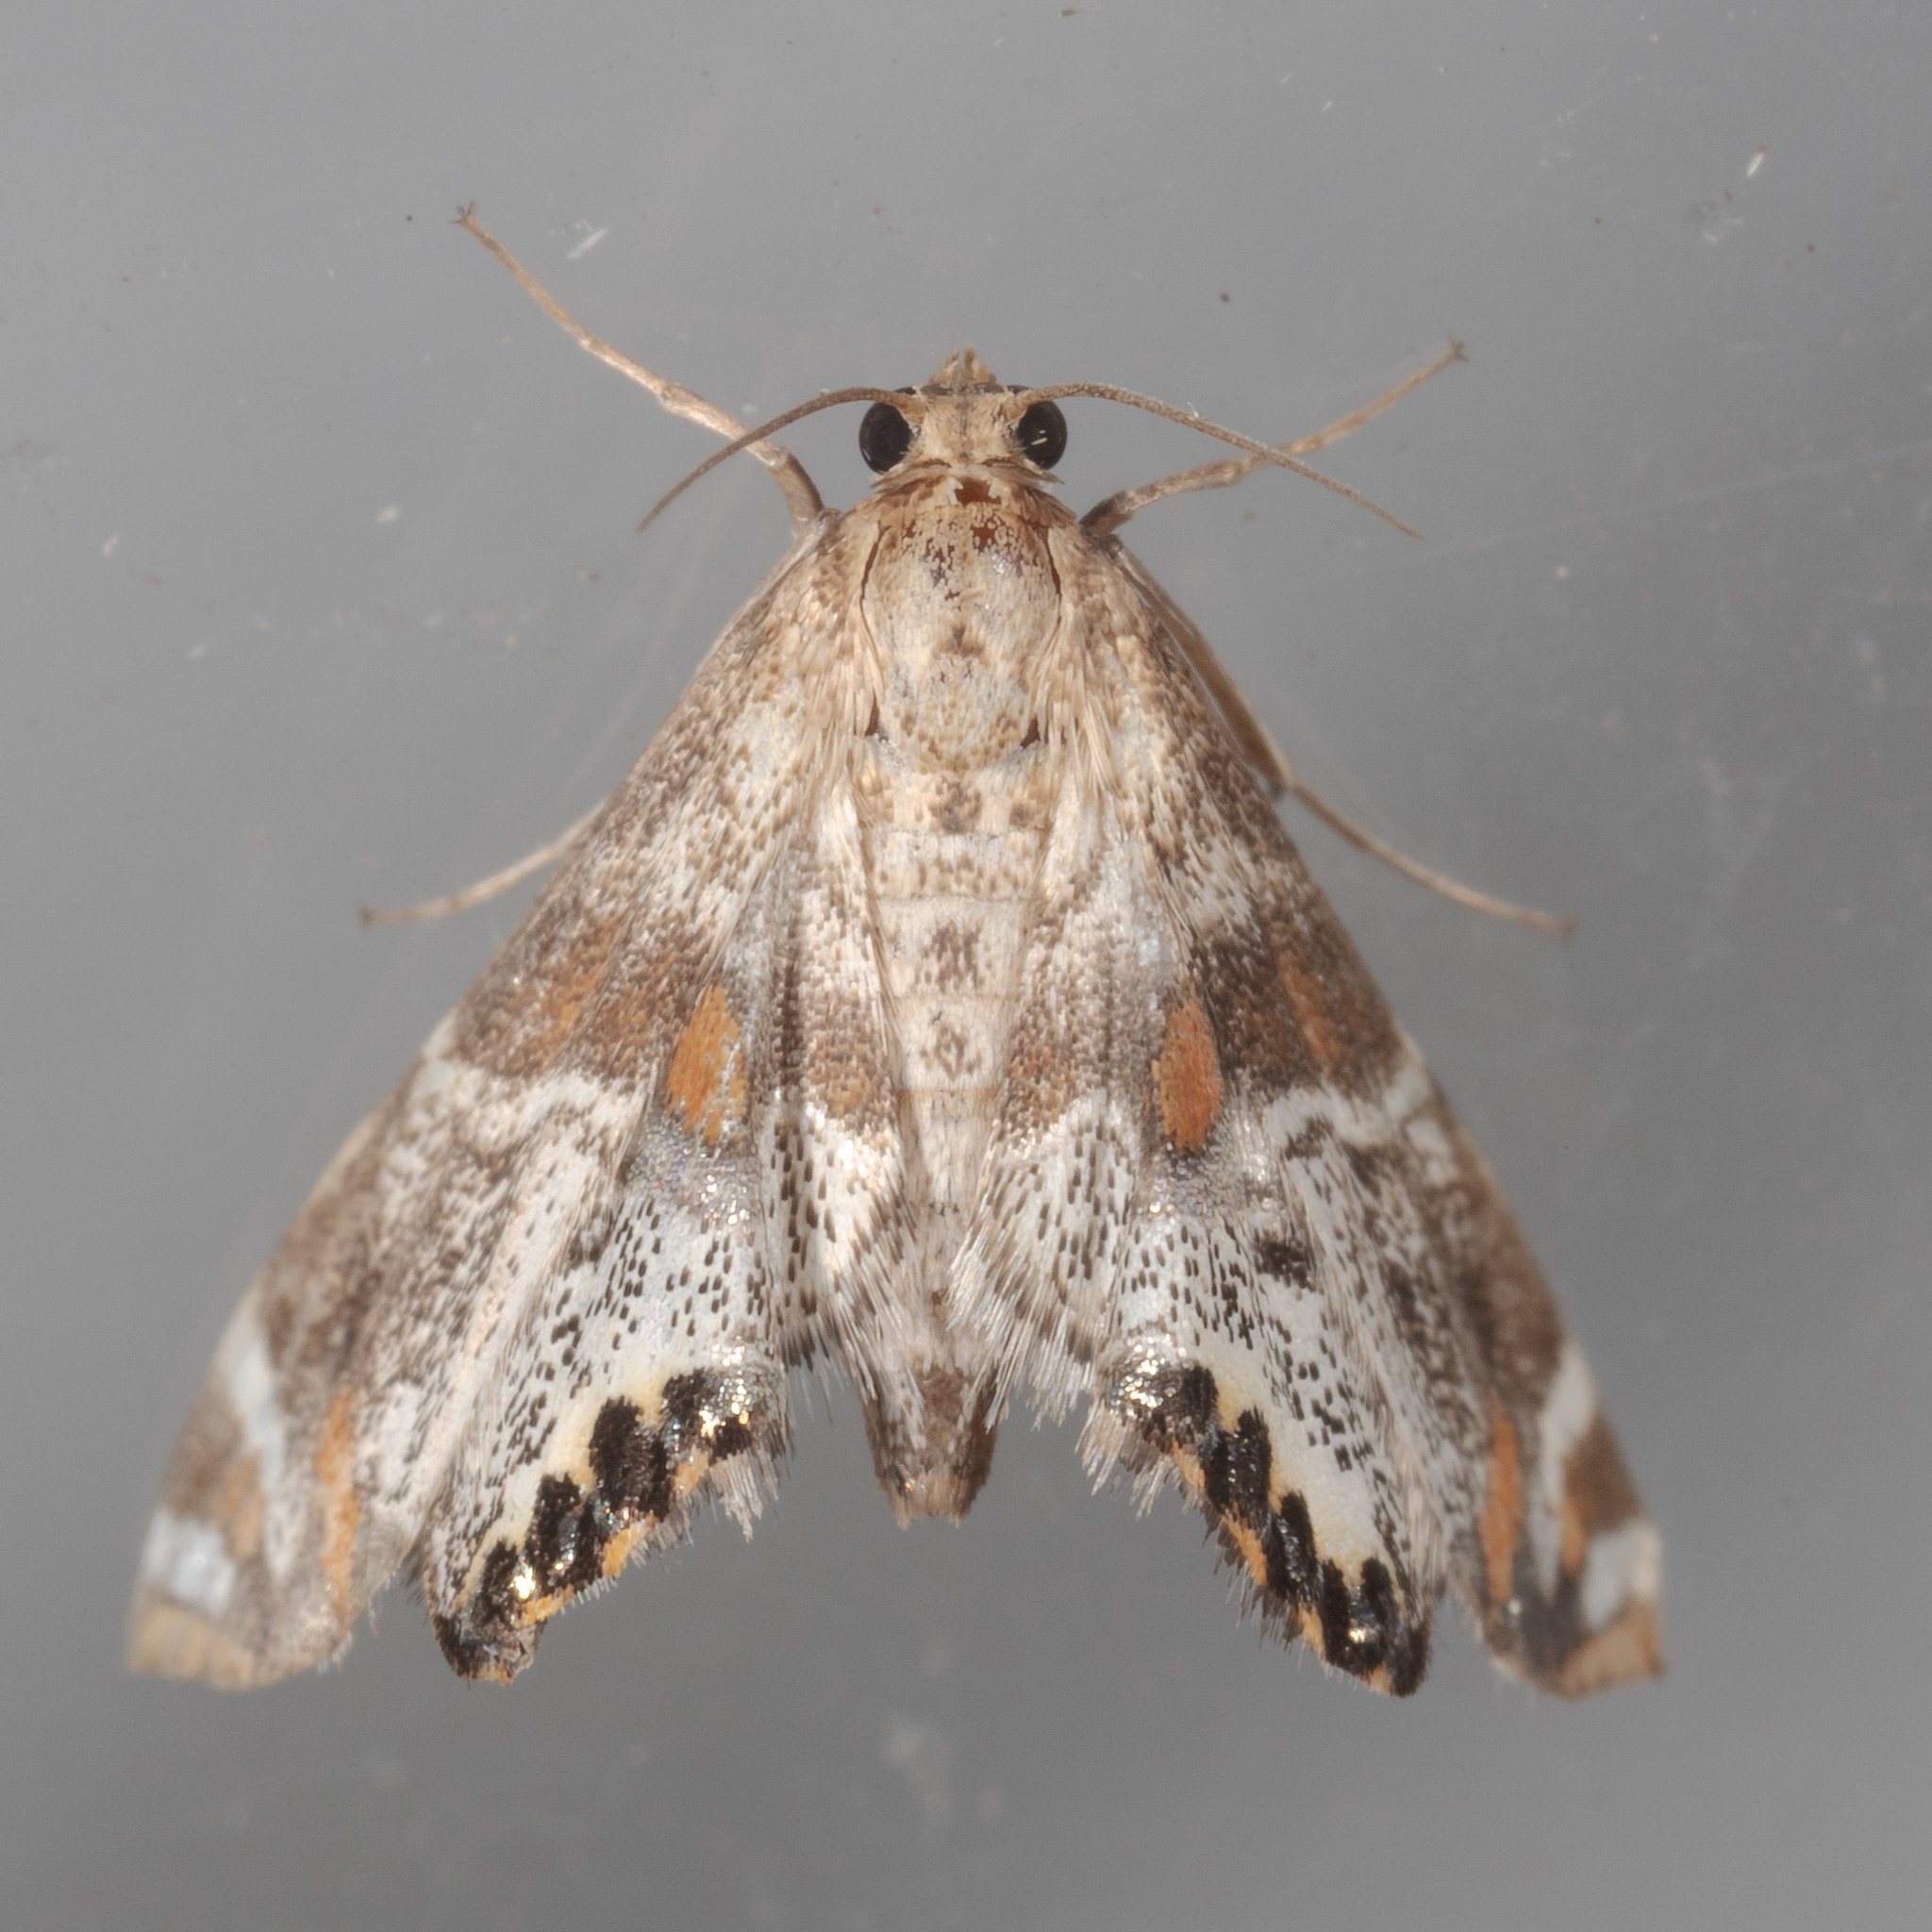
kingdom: Animalia
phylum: Arthropoda
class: Insecta
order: Lepidoptera
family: Crambidae
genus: Petrophila
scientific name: Petrophila jaliscalis
